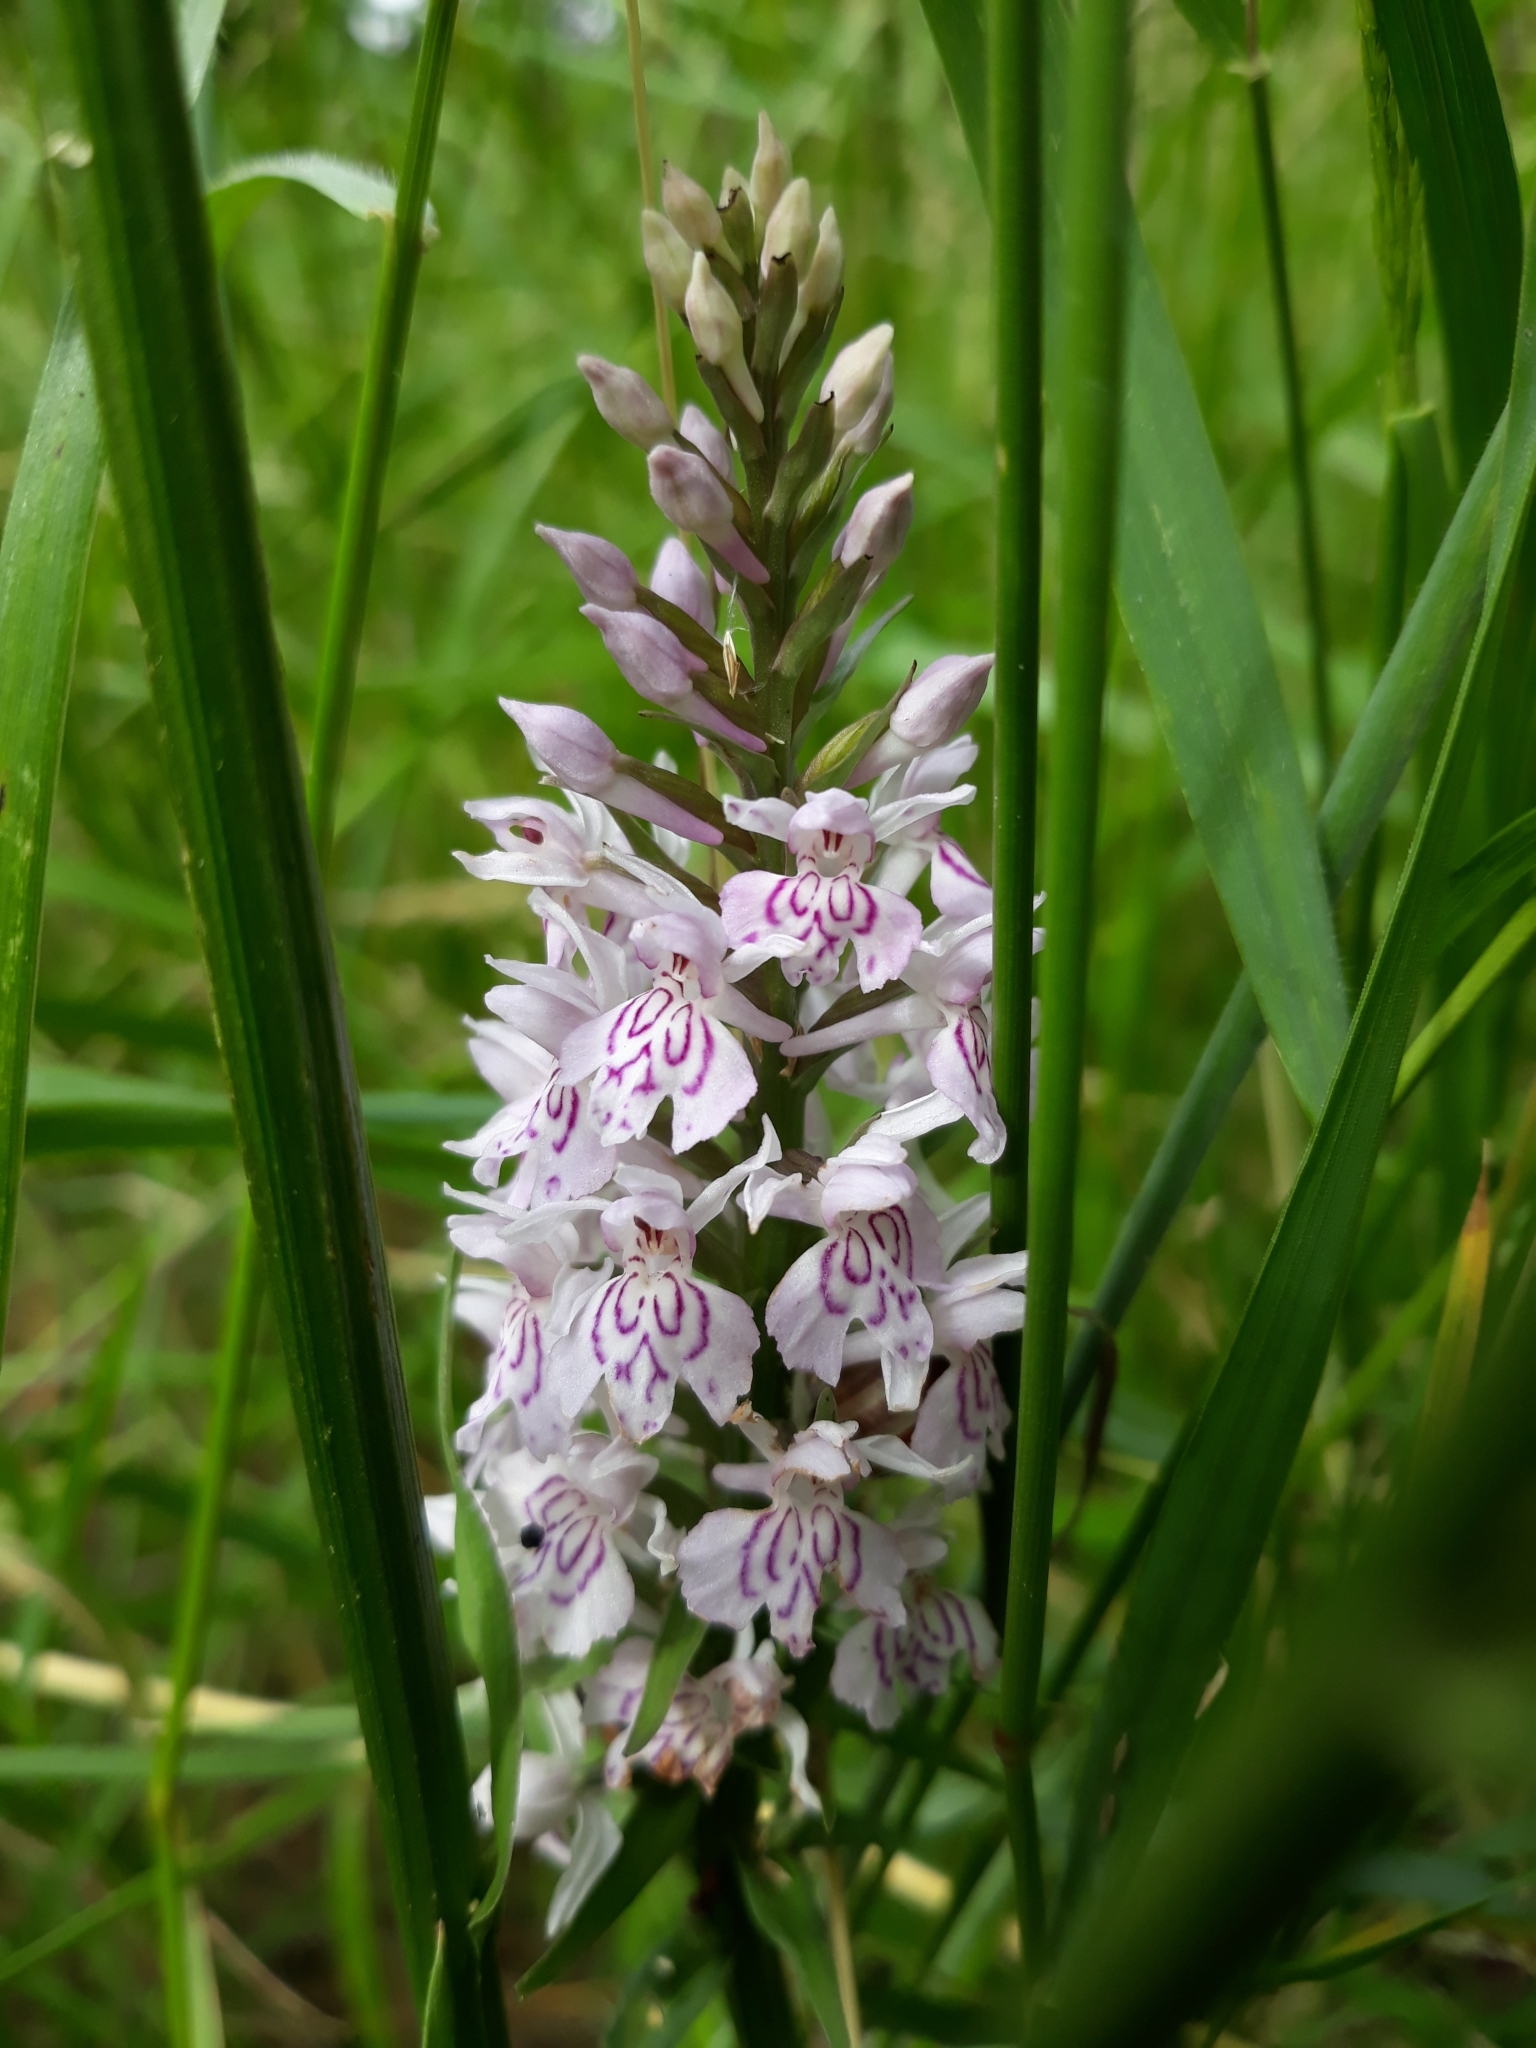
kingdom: Plantae
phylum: Tracheophyta
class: Liliopsida
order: Asparagales
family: Orchidaceae
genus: Dactylorhiza
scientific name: Dactylorhiza maculata
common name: Heath spotted-orchid
